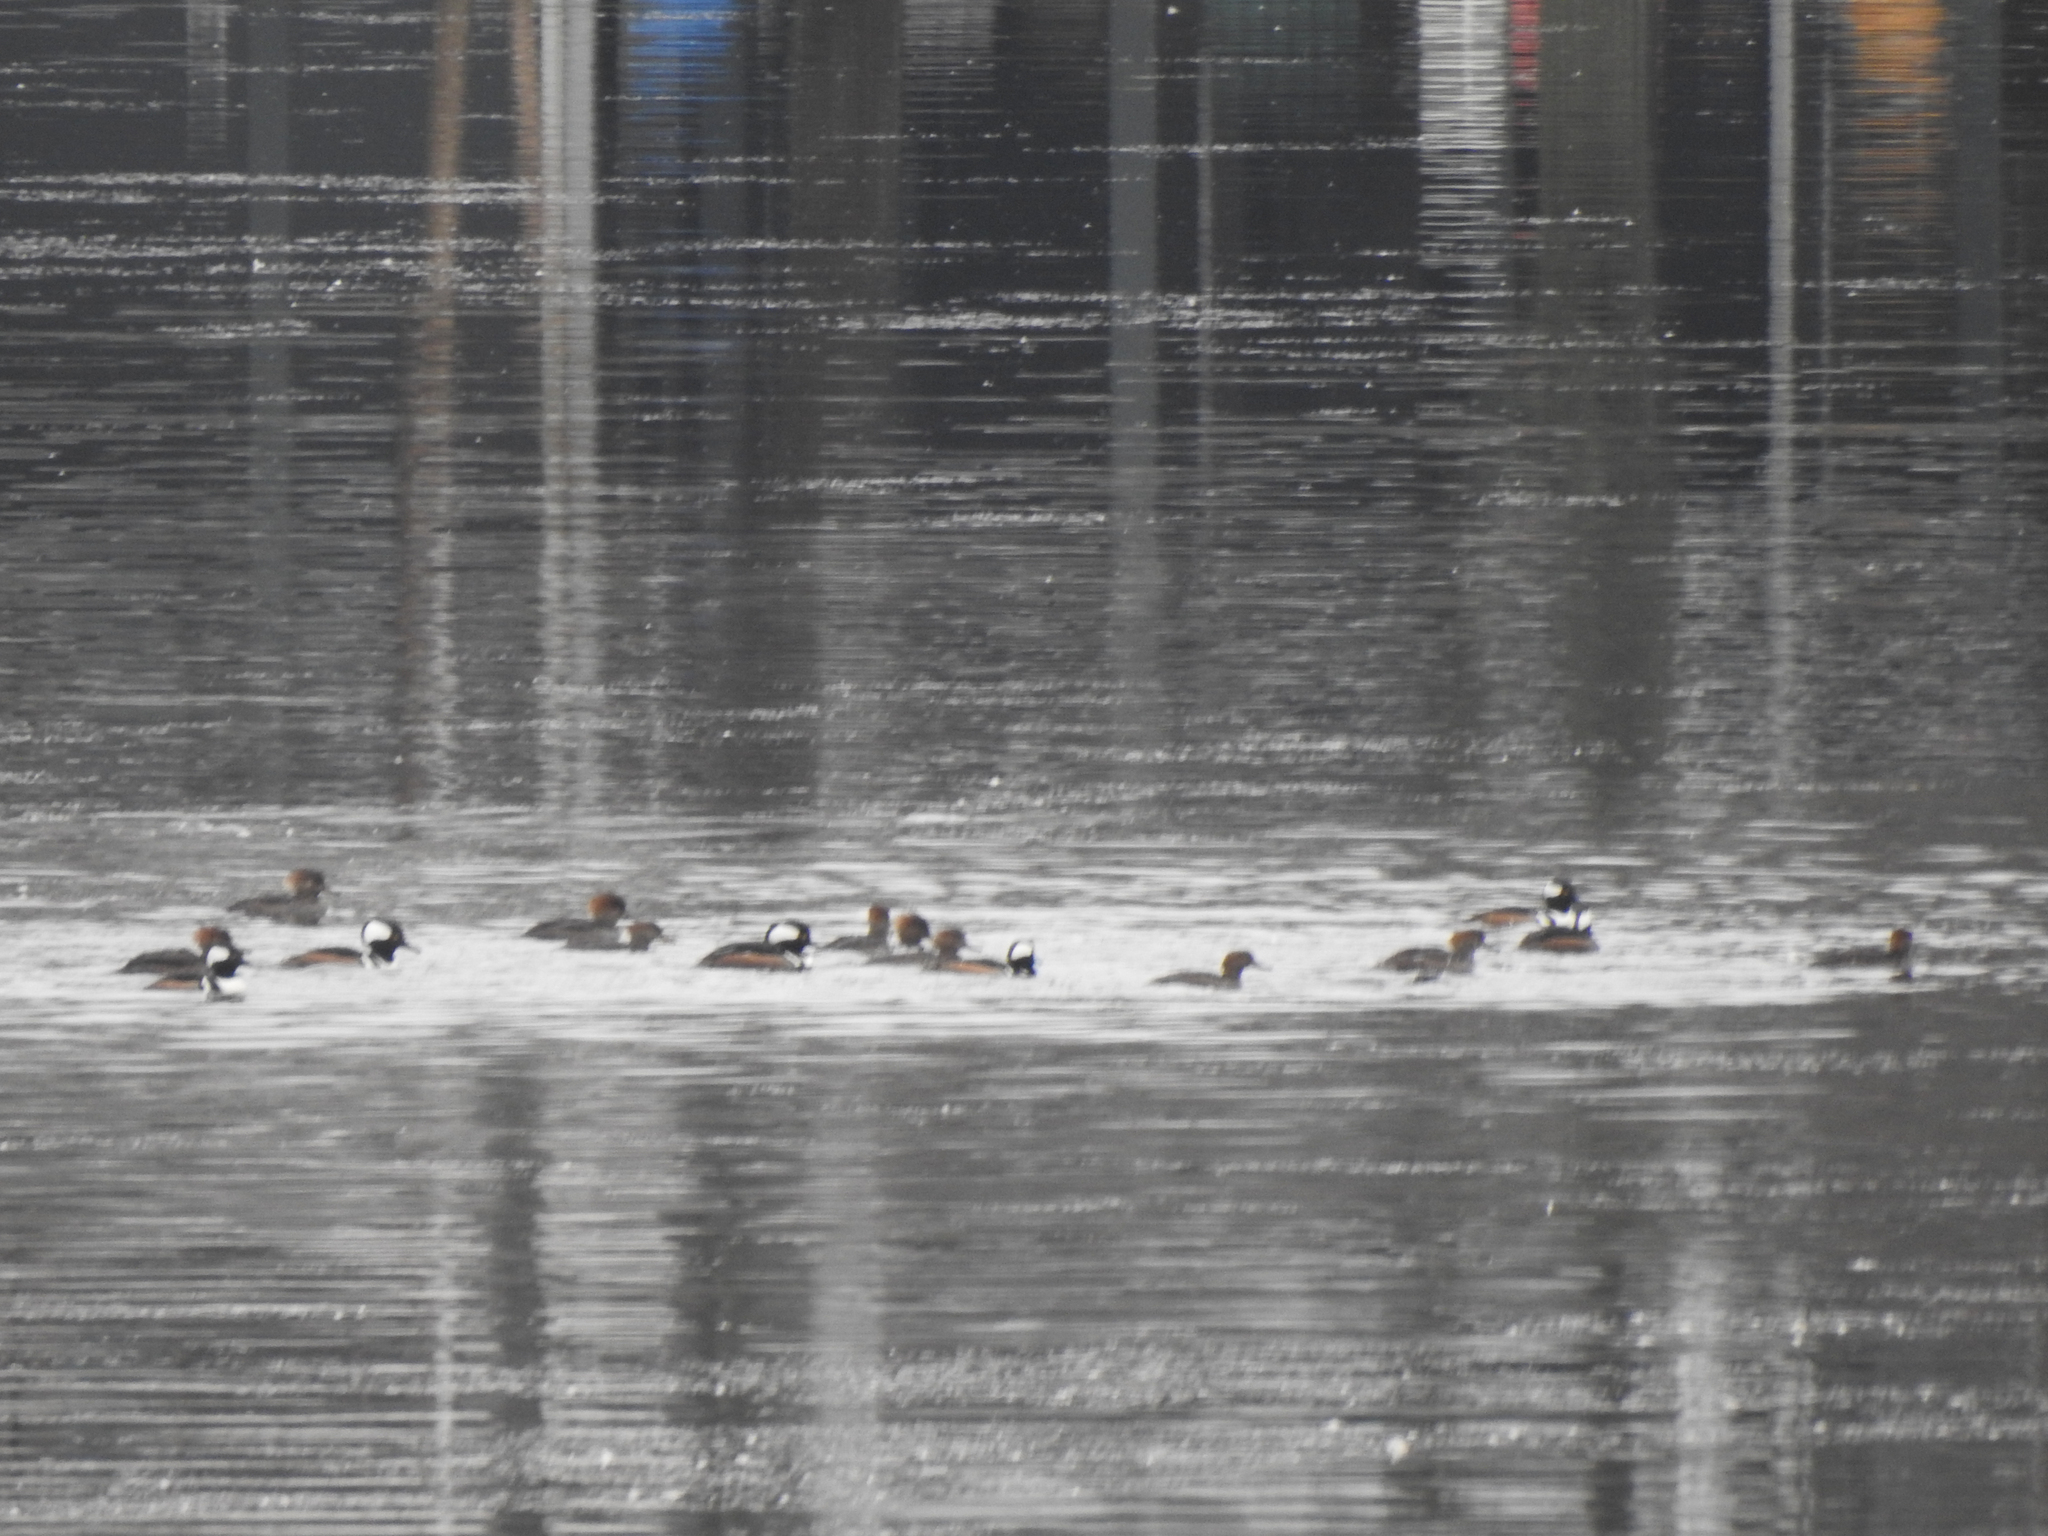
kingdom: Animalia
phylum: Chordata
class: Aves
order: Anseriformes
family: Anatidae
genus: Lophodytes
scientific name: Lophodytes cucullatus
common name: Hooded merganser
